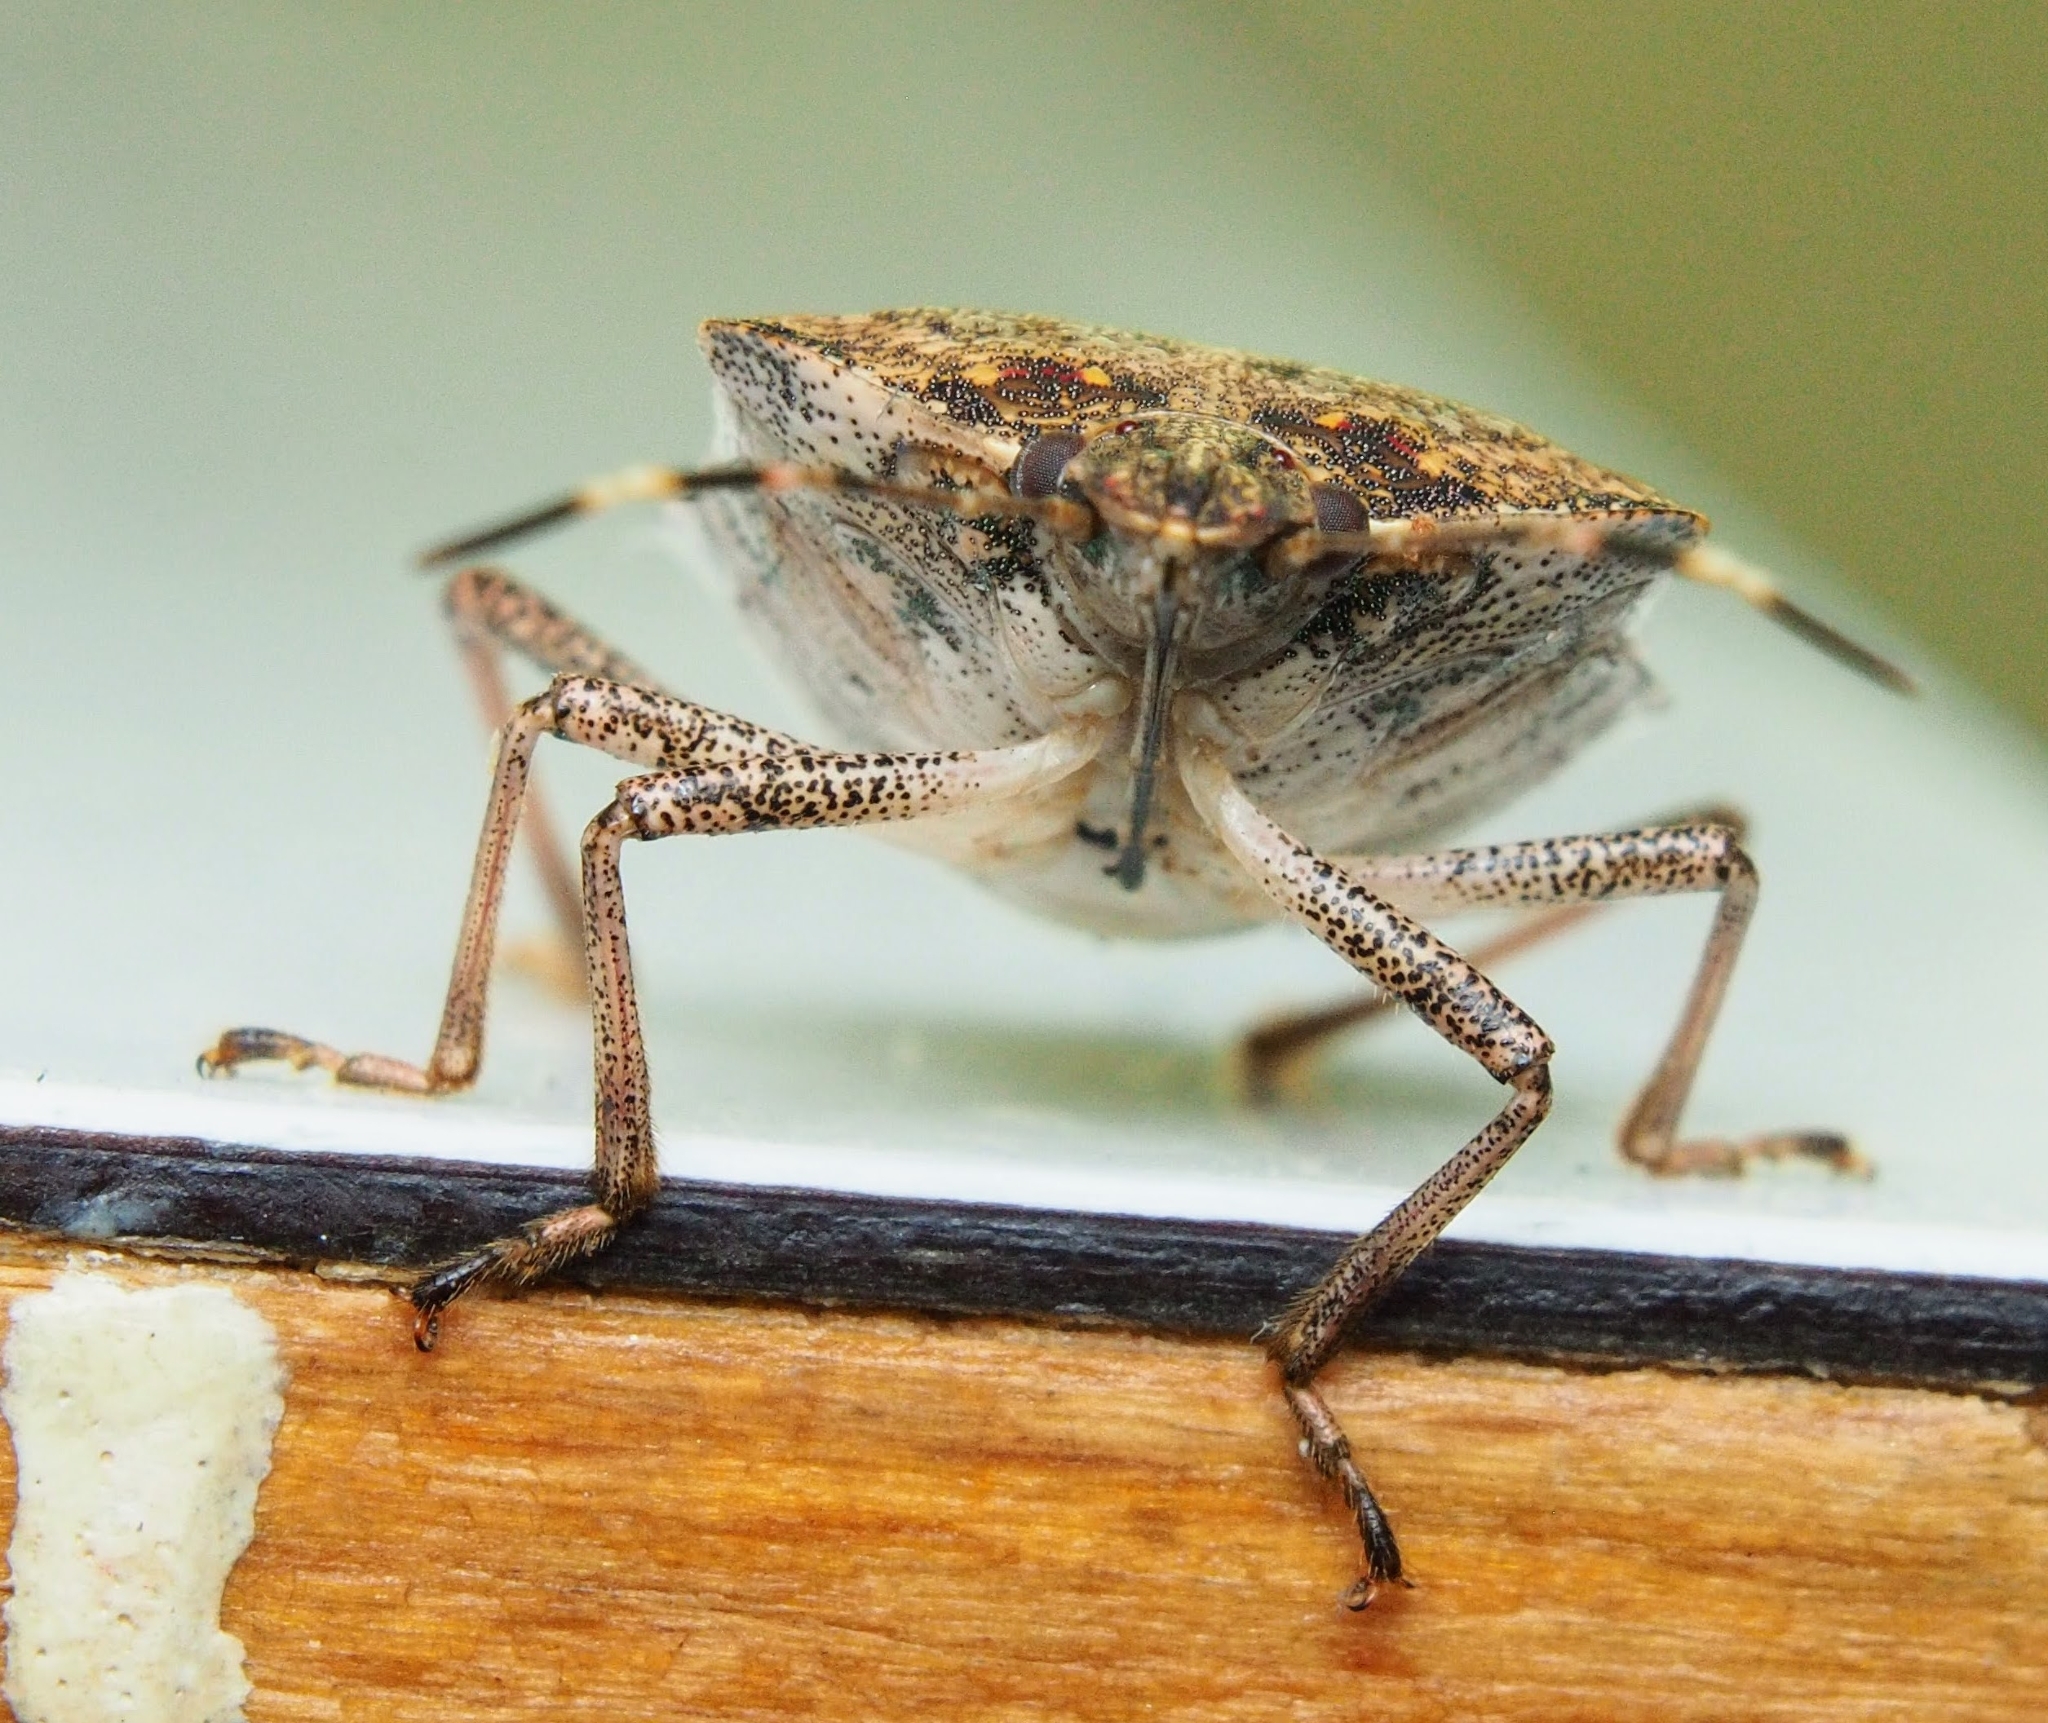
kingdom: Animalia
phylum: Arthropoda
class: Insecta
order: Hemiptera
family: Pentatomidae
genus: Halyomorpha
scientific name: Halyomorpha halys
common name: Brown marmorated stink bug
